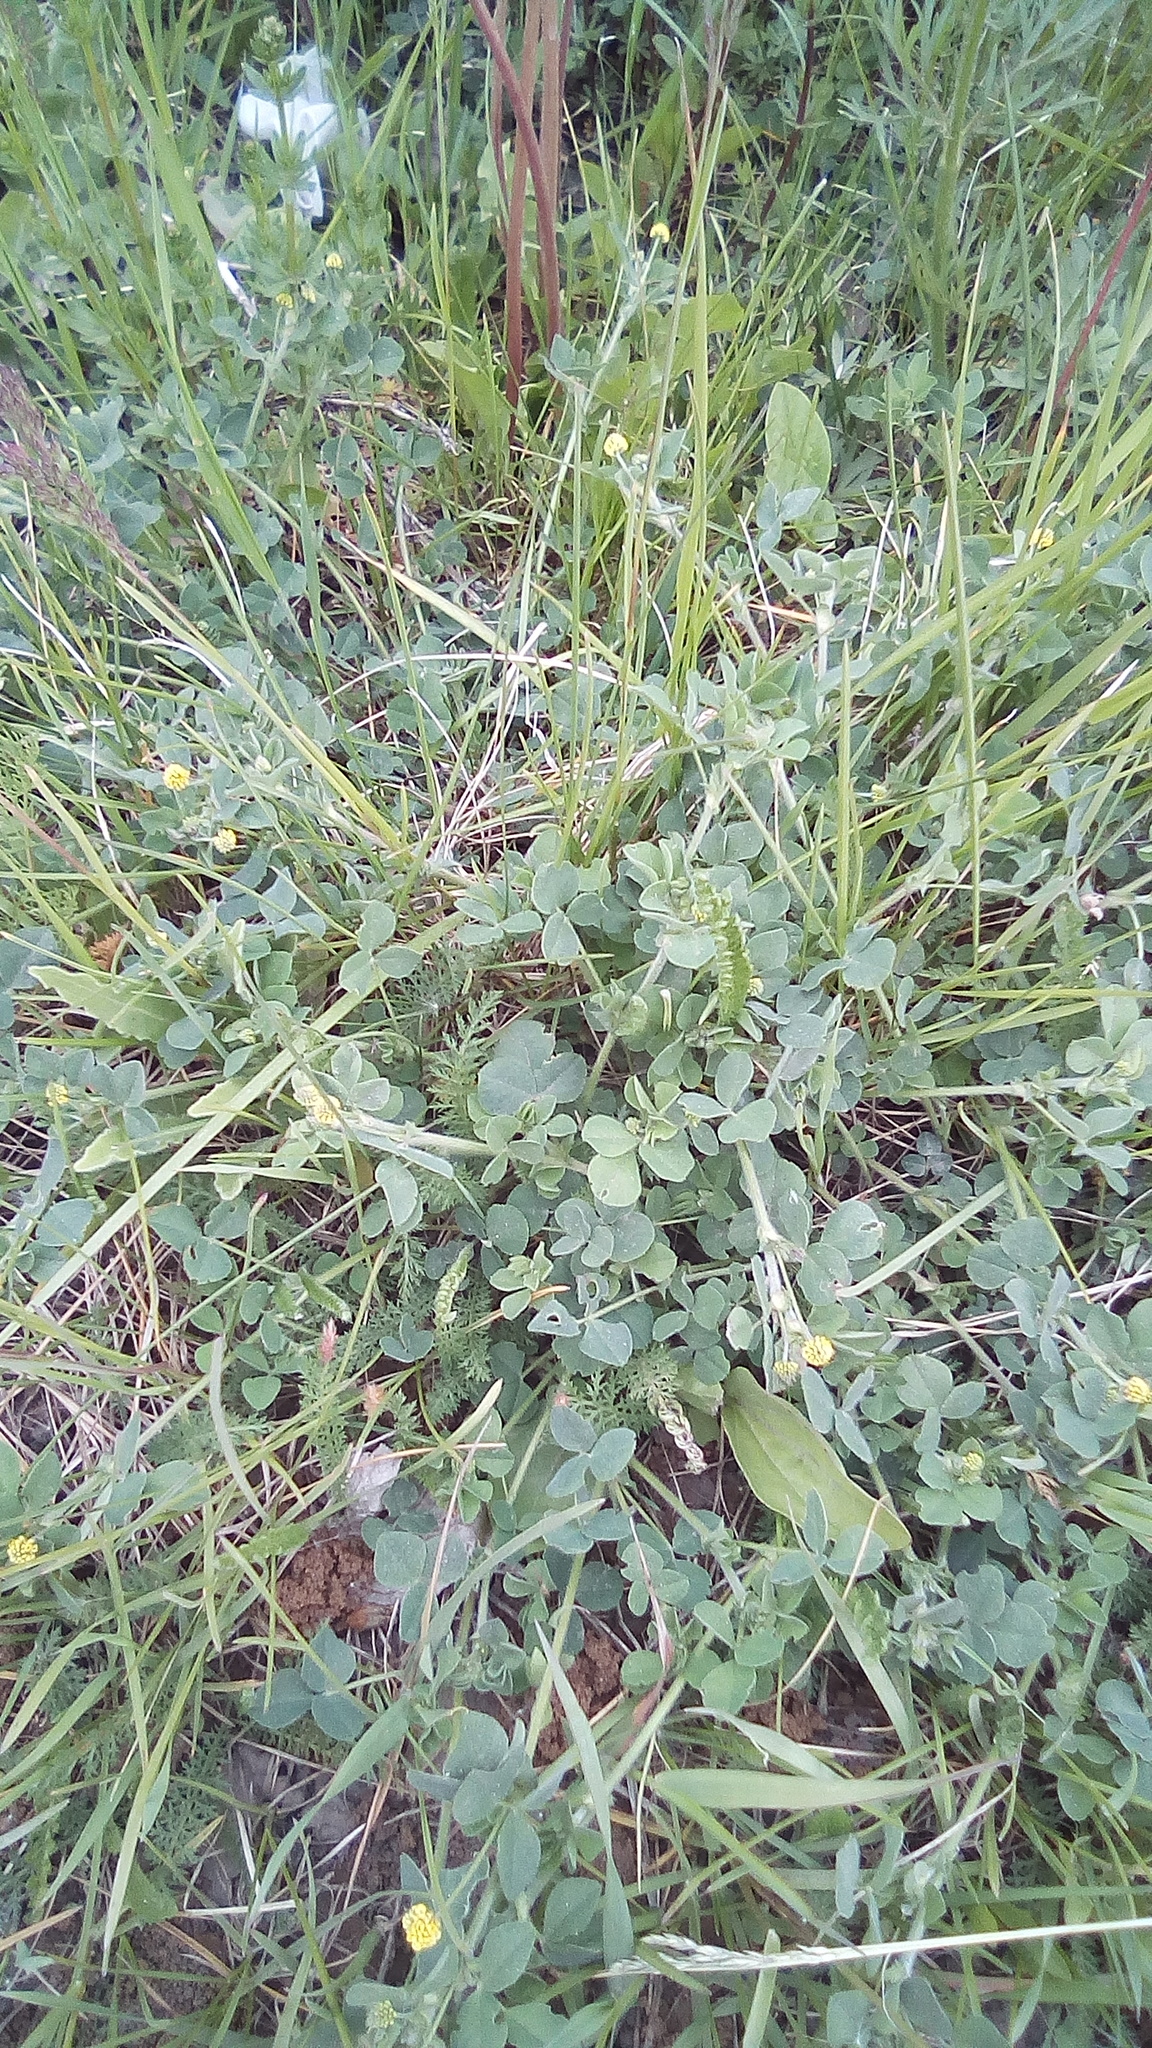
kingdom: Plantae
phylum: Tracheophyta
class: Magnoliopsida
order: Fabales
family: Fabaceae
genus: Medicago
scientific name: Medicago lupulina
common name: Black medick
